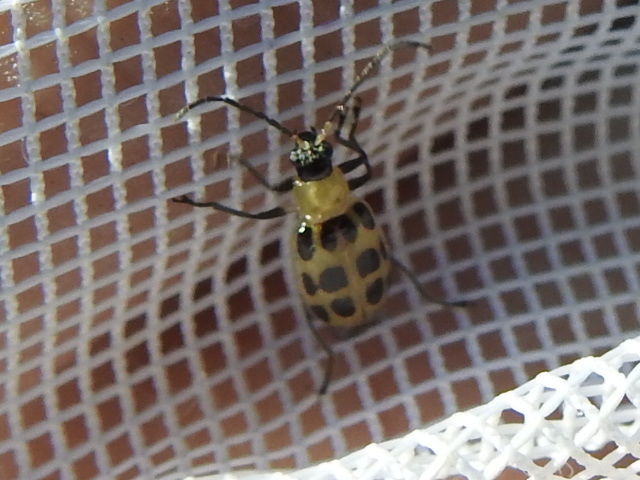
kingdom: Animalia
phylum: Arthropoda
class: Insecta
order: Coleoptera
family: Chrysomelidae
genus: Diabrotica
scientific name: Diabrotica undecimpunctata
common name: Spotted cucumber beetle
